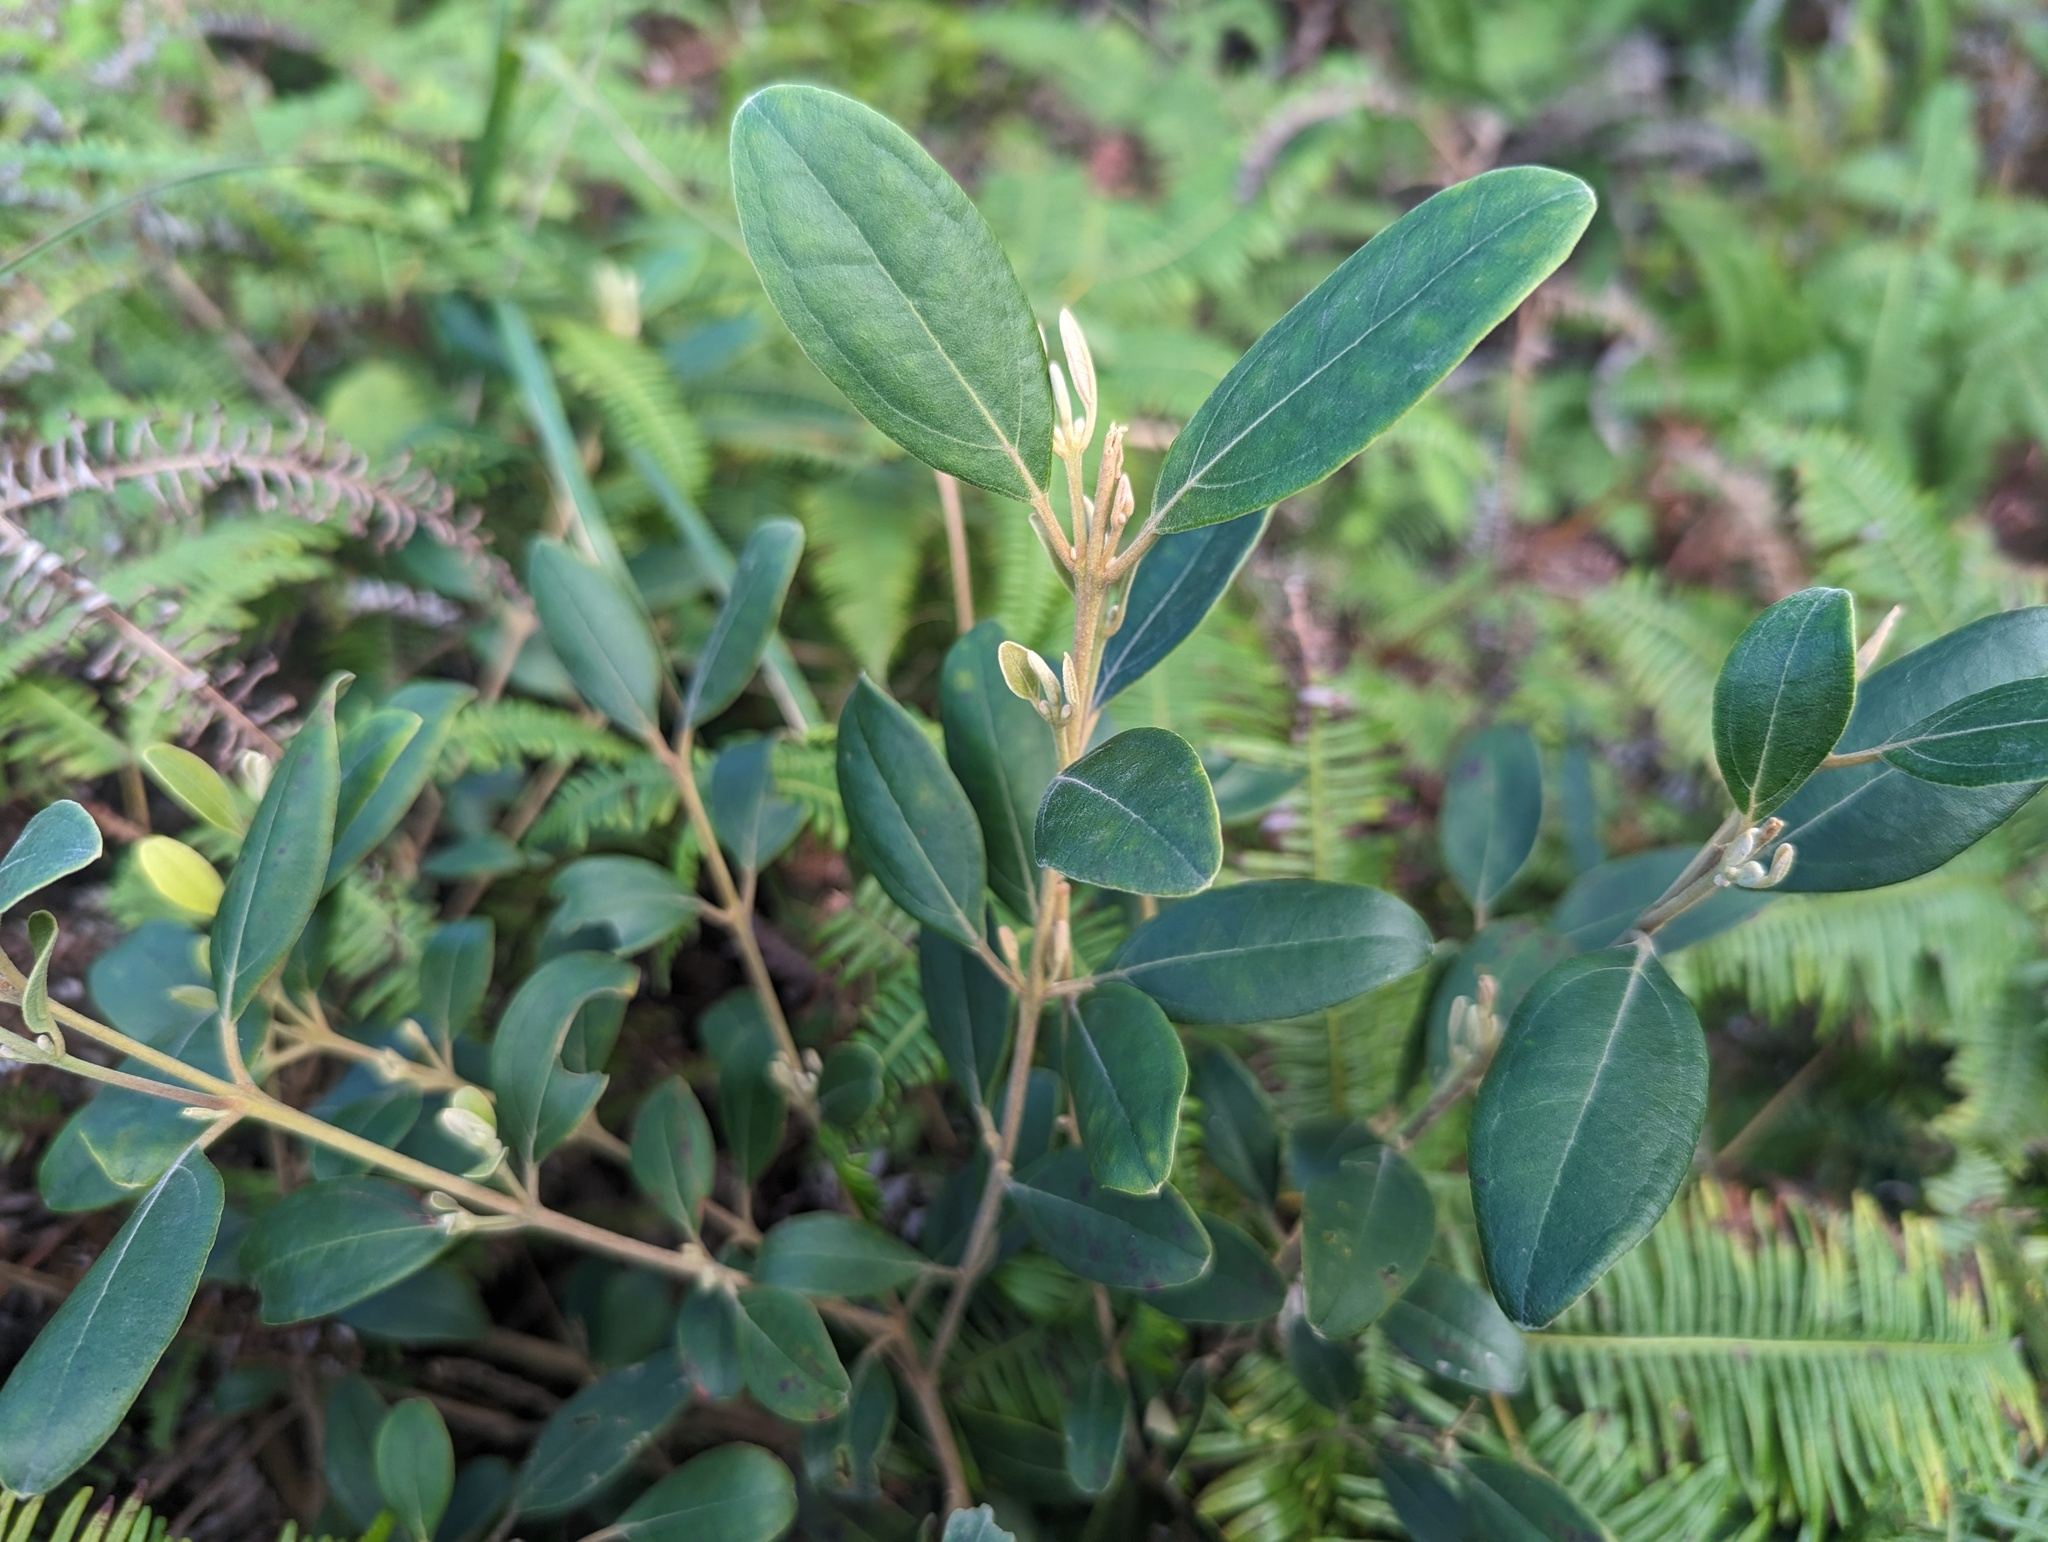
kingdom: Plantae
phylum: Tracheophyta
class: Magnoliopsida
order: Myrtales
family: Myrtaceae
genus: Rhodomyrtus
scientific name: Rhodomyrtus tomentosa
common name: Rose myrtle
